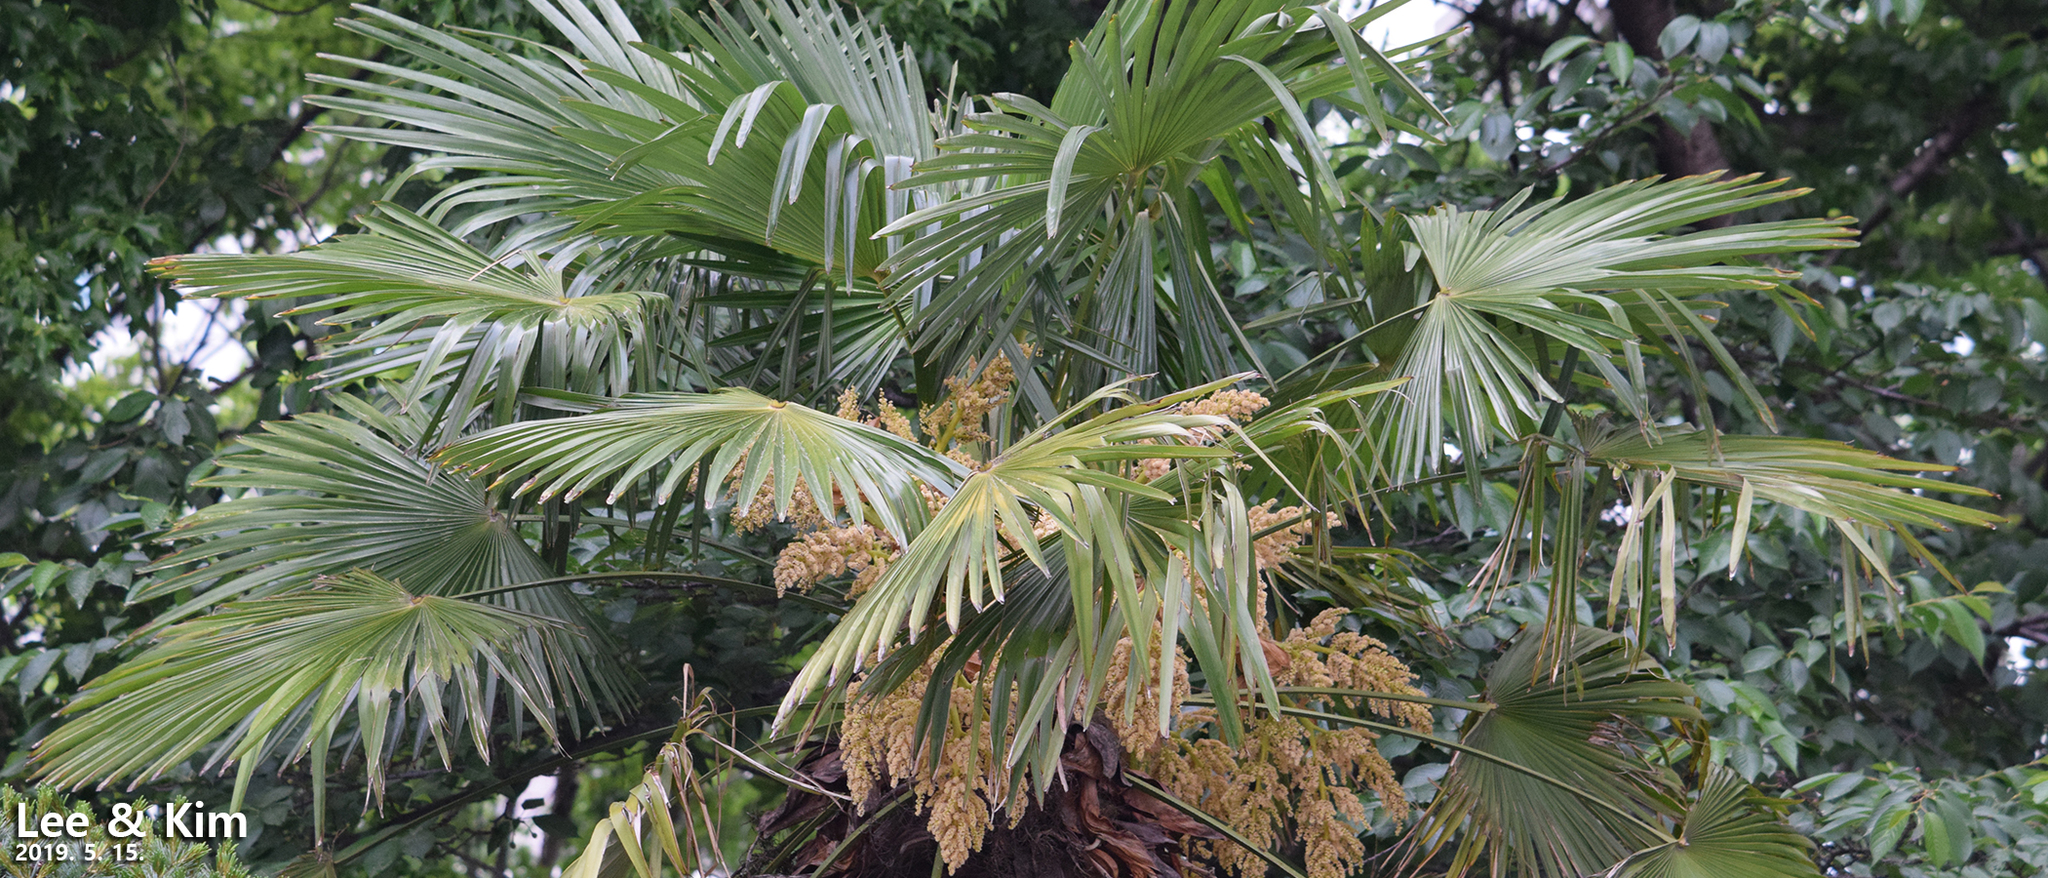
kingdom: Plantae
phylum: Tracheophyta
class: Liliopsida
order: Arecales
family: Arecaceae
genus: Trachycarpus
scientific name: Trachycarpus fortunei
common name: Chusan palm
